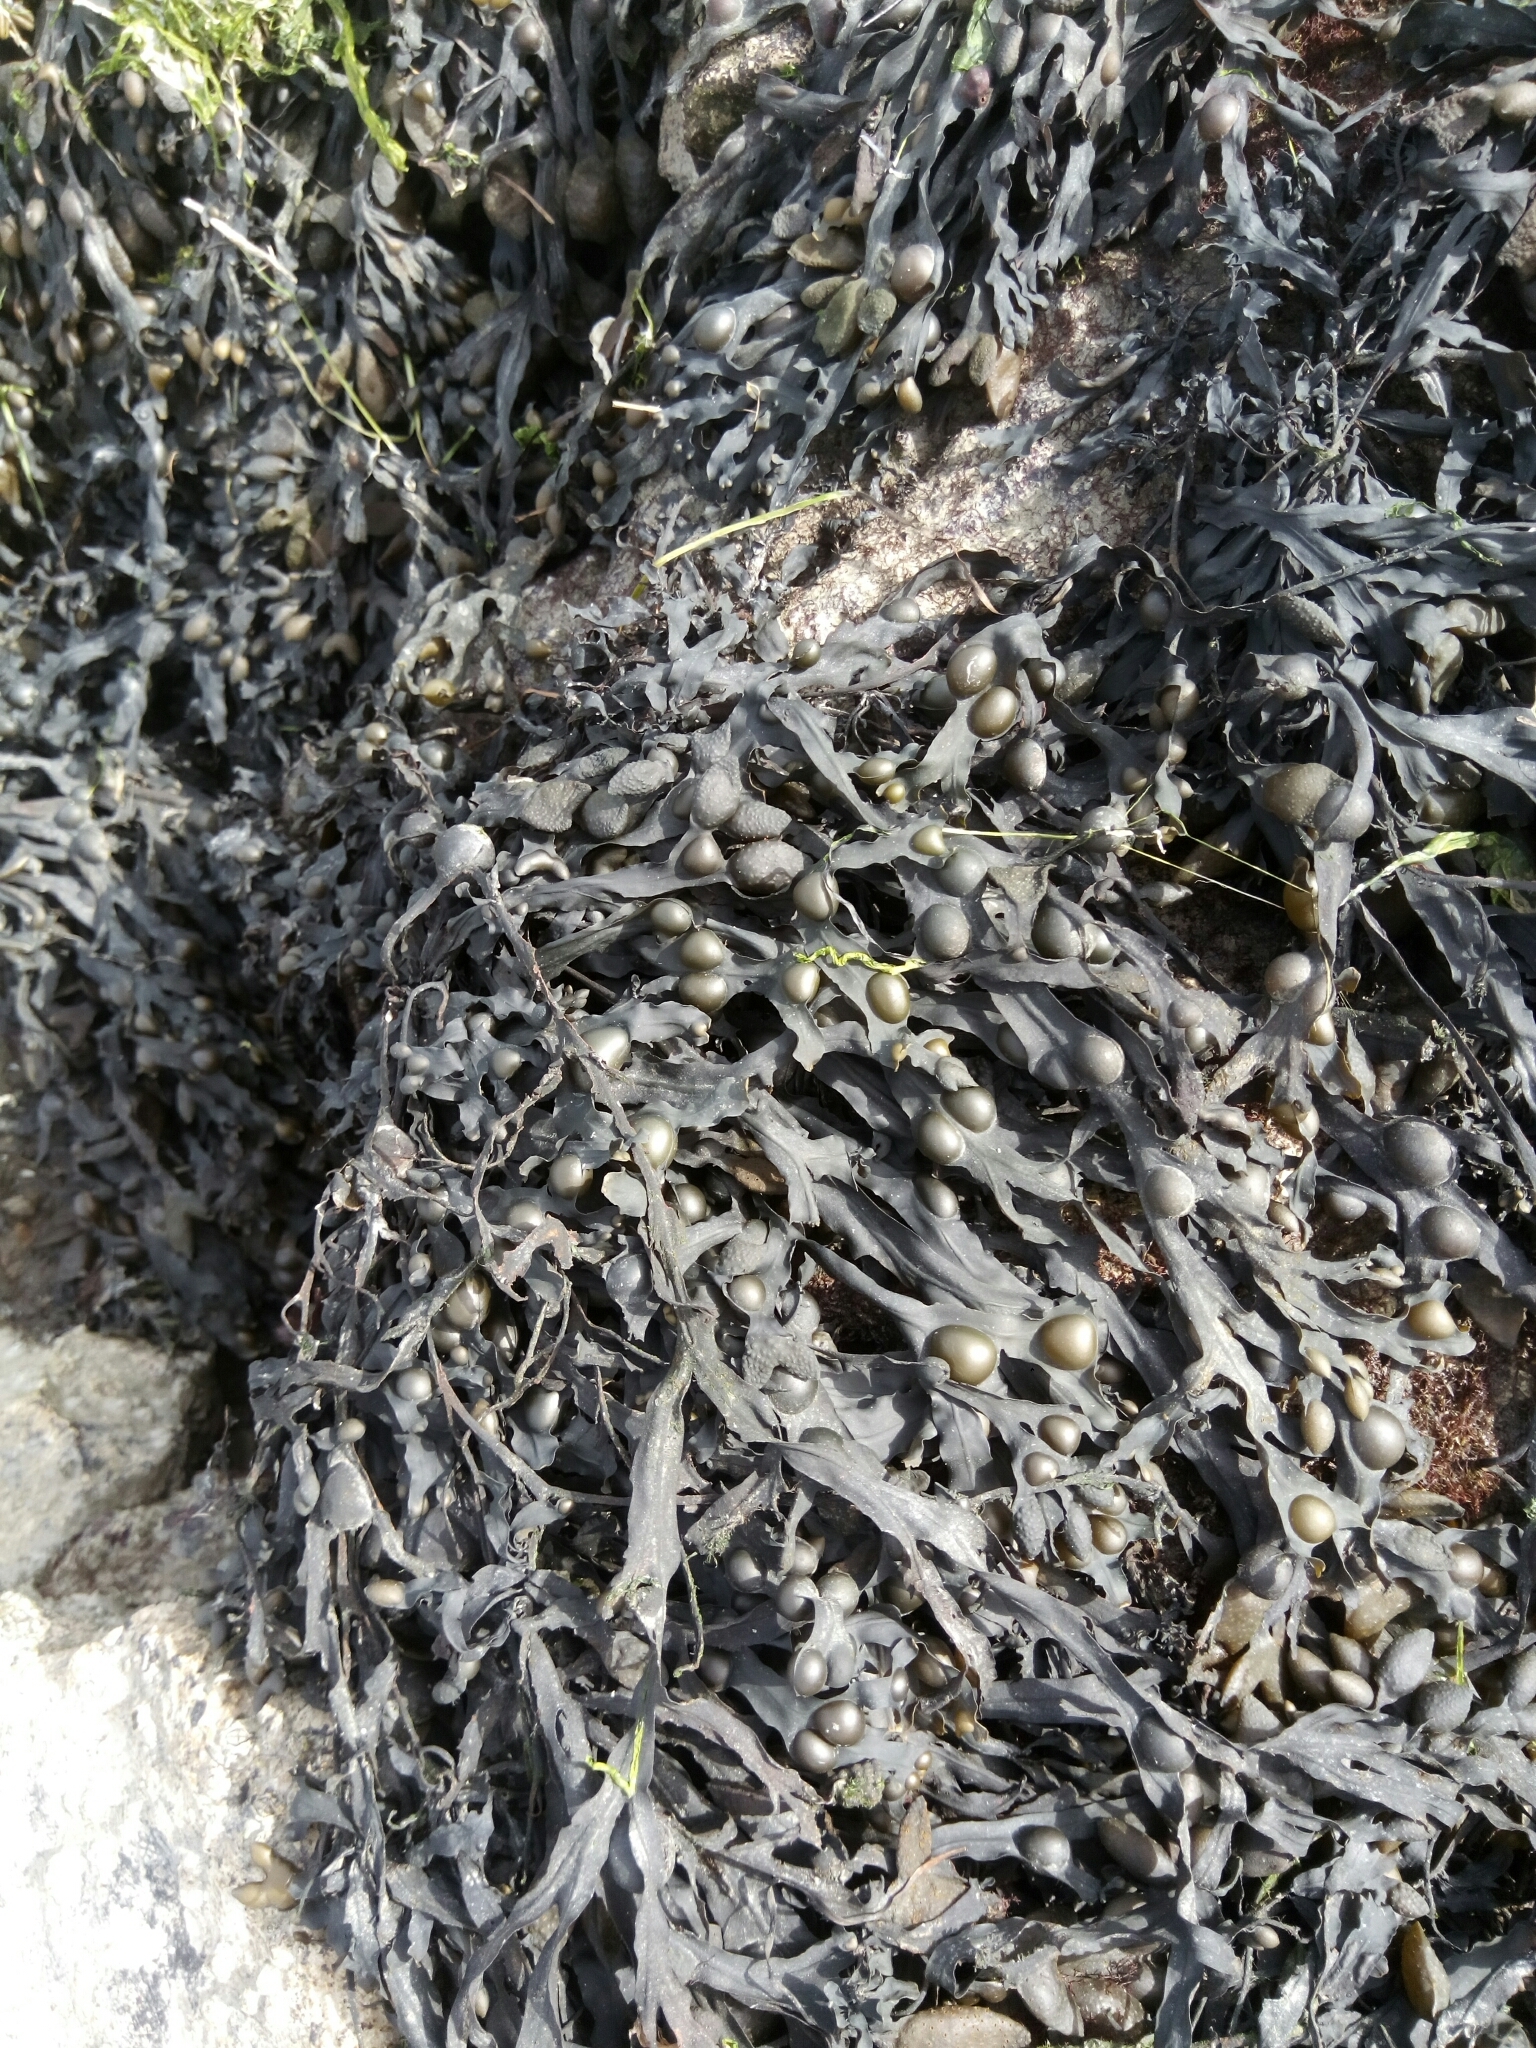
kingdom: Chromista
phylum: Ochrophyta
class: Phaeophyceae
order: Fucales
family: Fucaceae
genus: Fucus
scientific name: Fucus vesiculosus
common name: Bladder wrack
